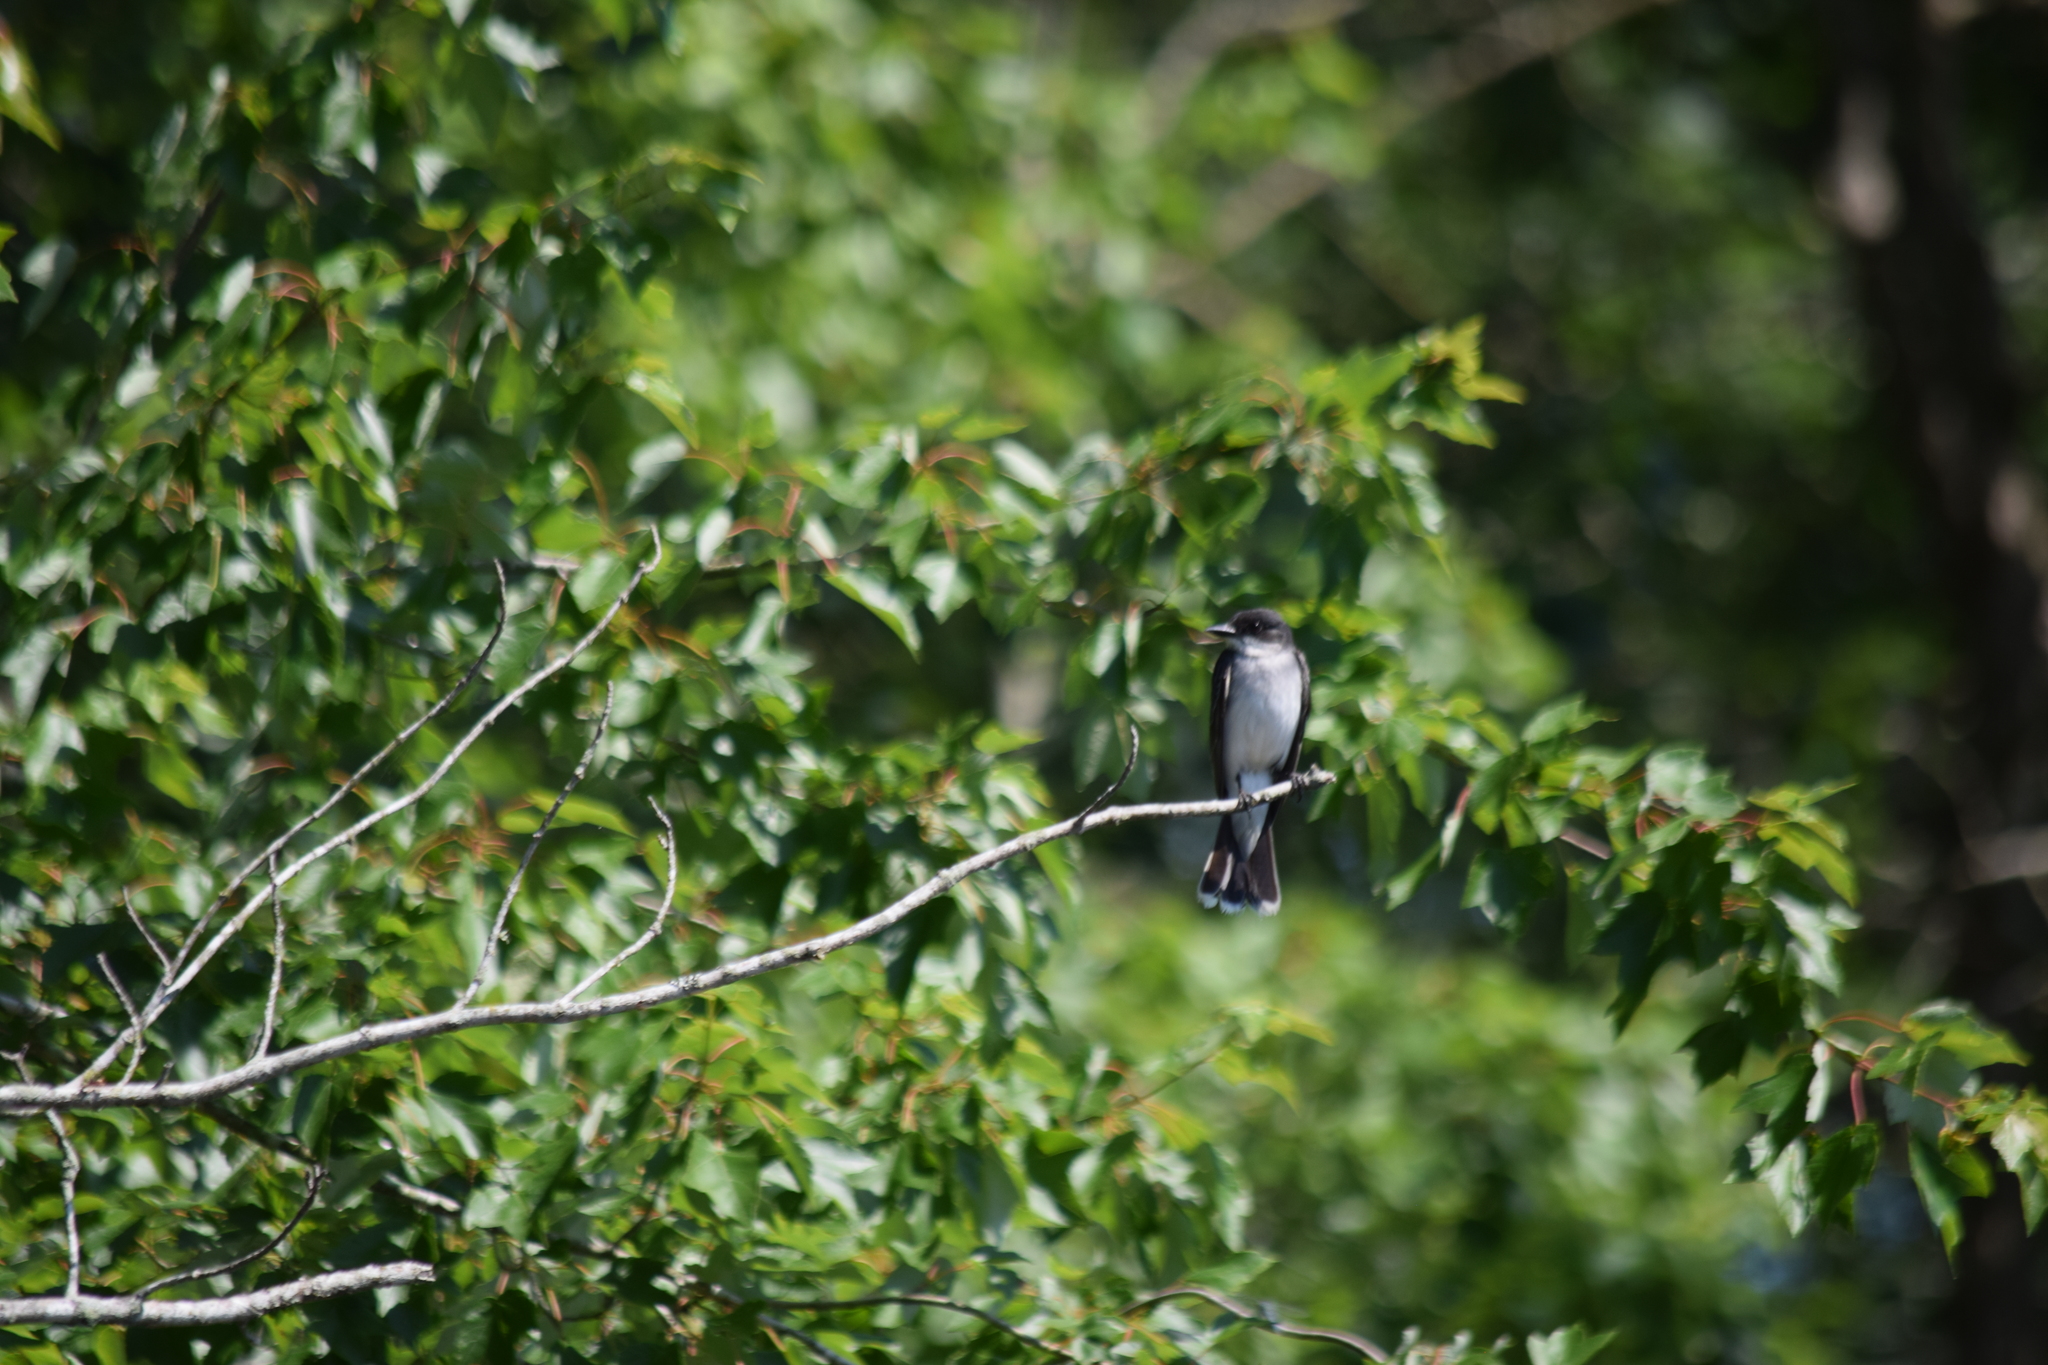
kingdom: Animalia
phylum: Chordata
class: Aves
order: Passeriformes
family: Tyrannidae
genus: Tyrannus
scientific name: Tyrannus tyrannus
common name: Eastern kingbird
